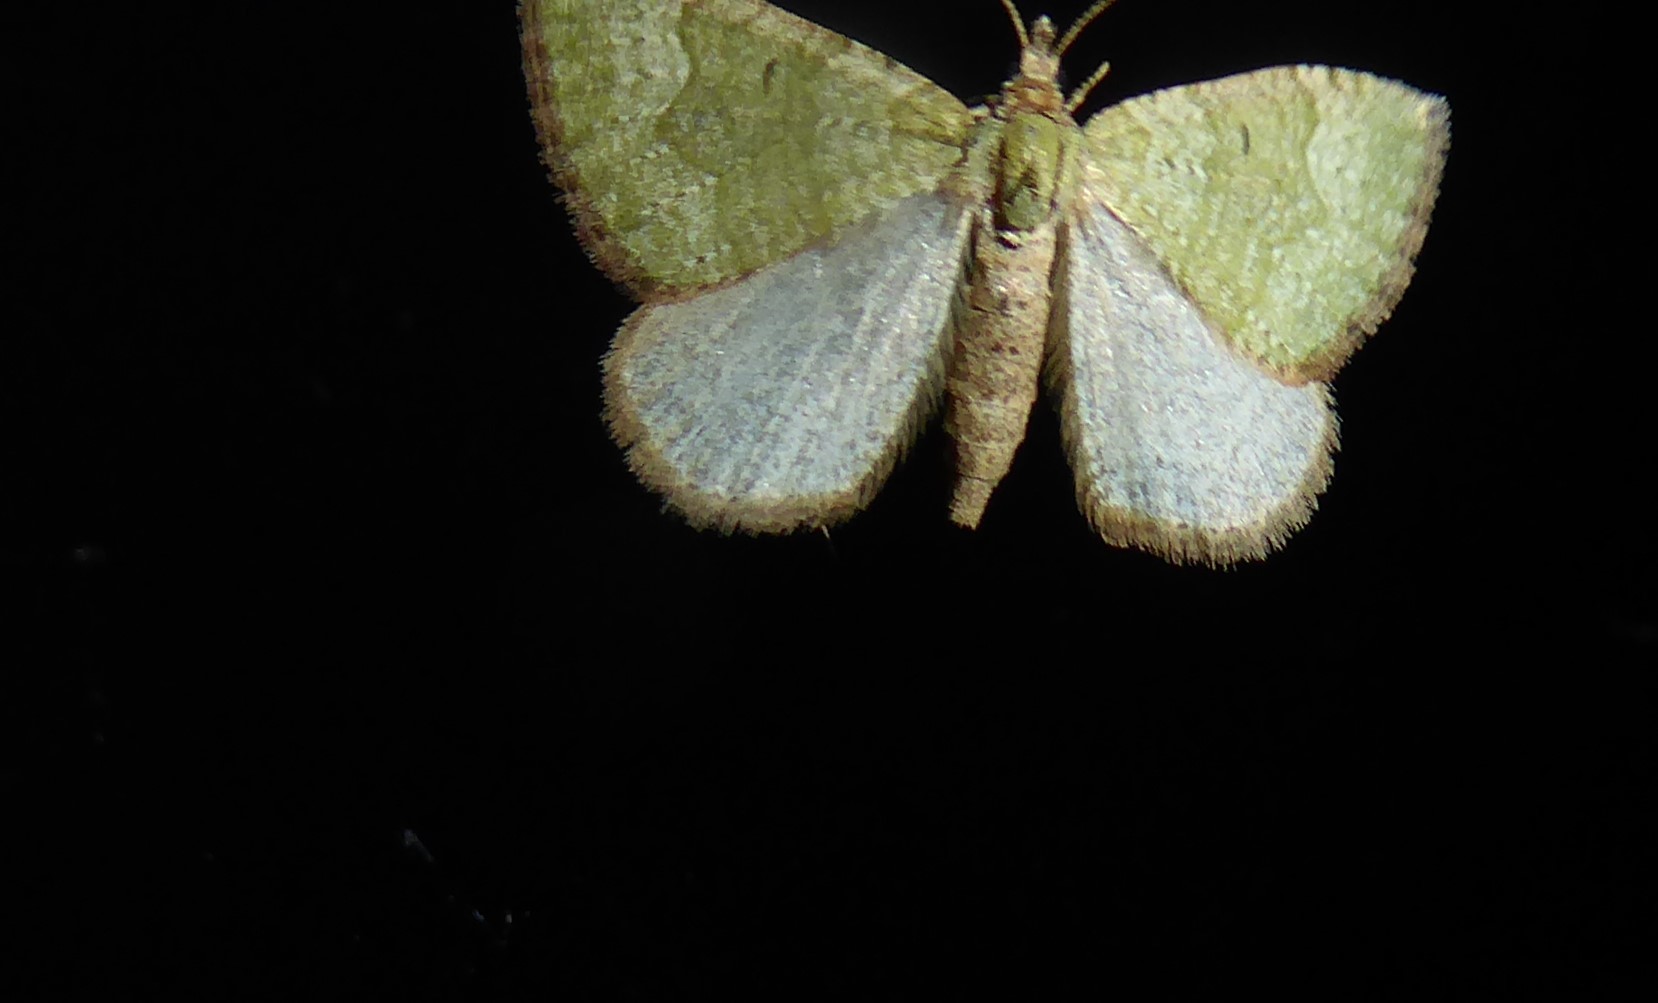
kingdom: Animalia
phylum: Arthropoda
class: Insecta
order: Lepidoptera
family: Geometridae
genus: Epyaxa
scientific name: Epyaxa rosearia
